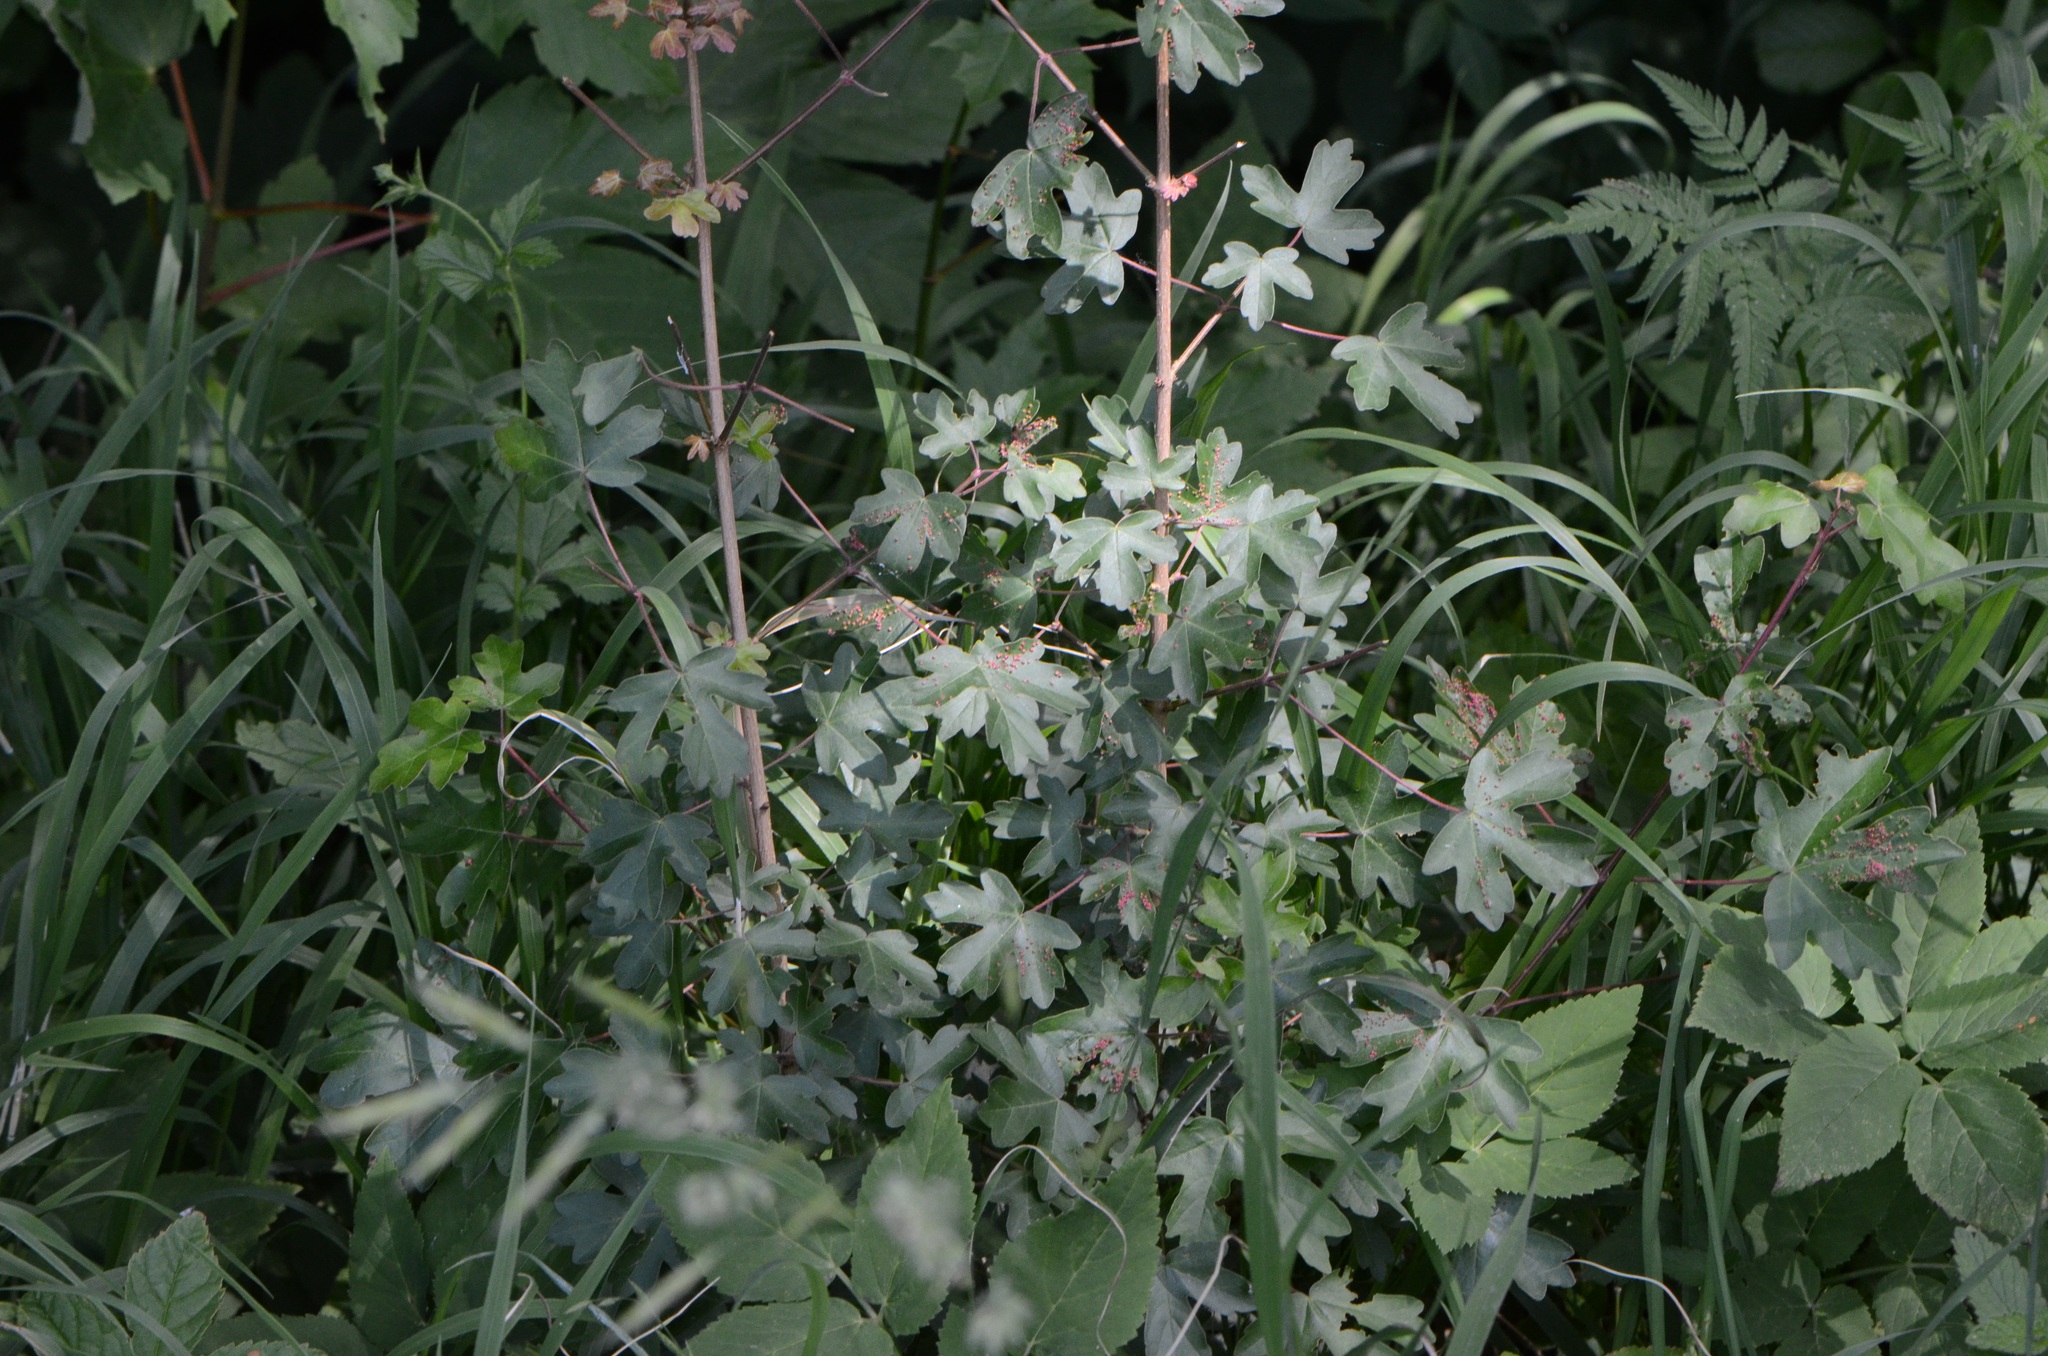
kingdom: Plantae
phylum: Tracheophyta
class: Magnoliopsida
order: Sapindales
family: Sapindaceae
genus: Acer
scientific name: Acer campestre
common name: Field maple
